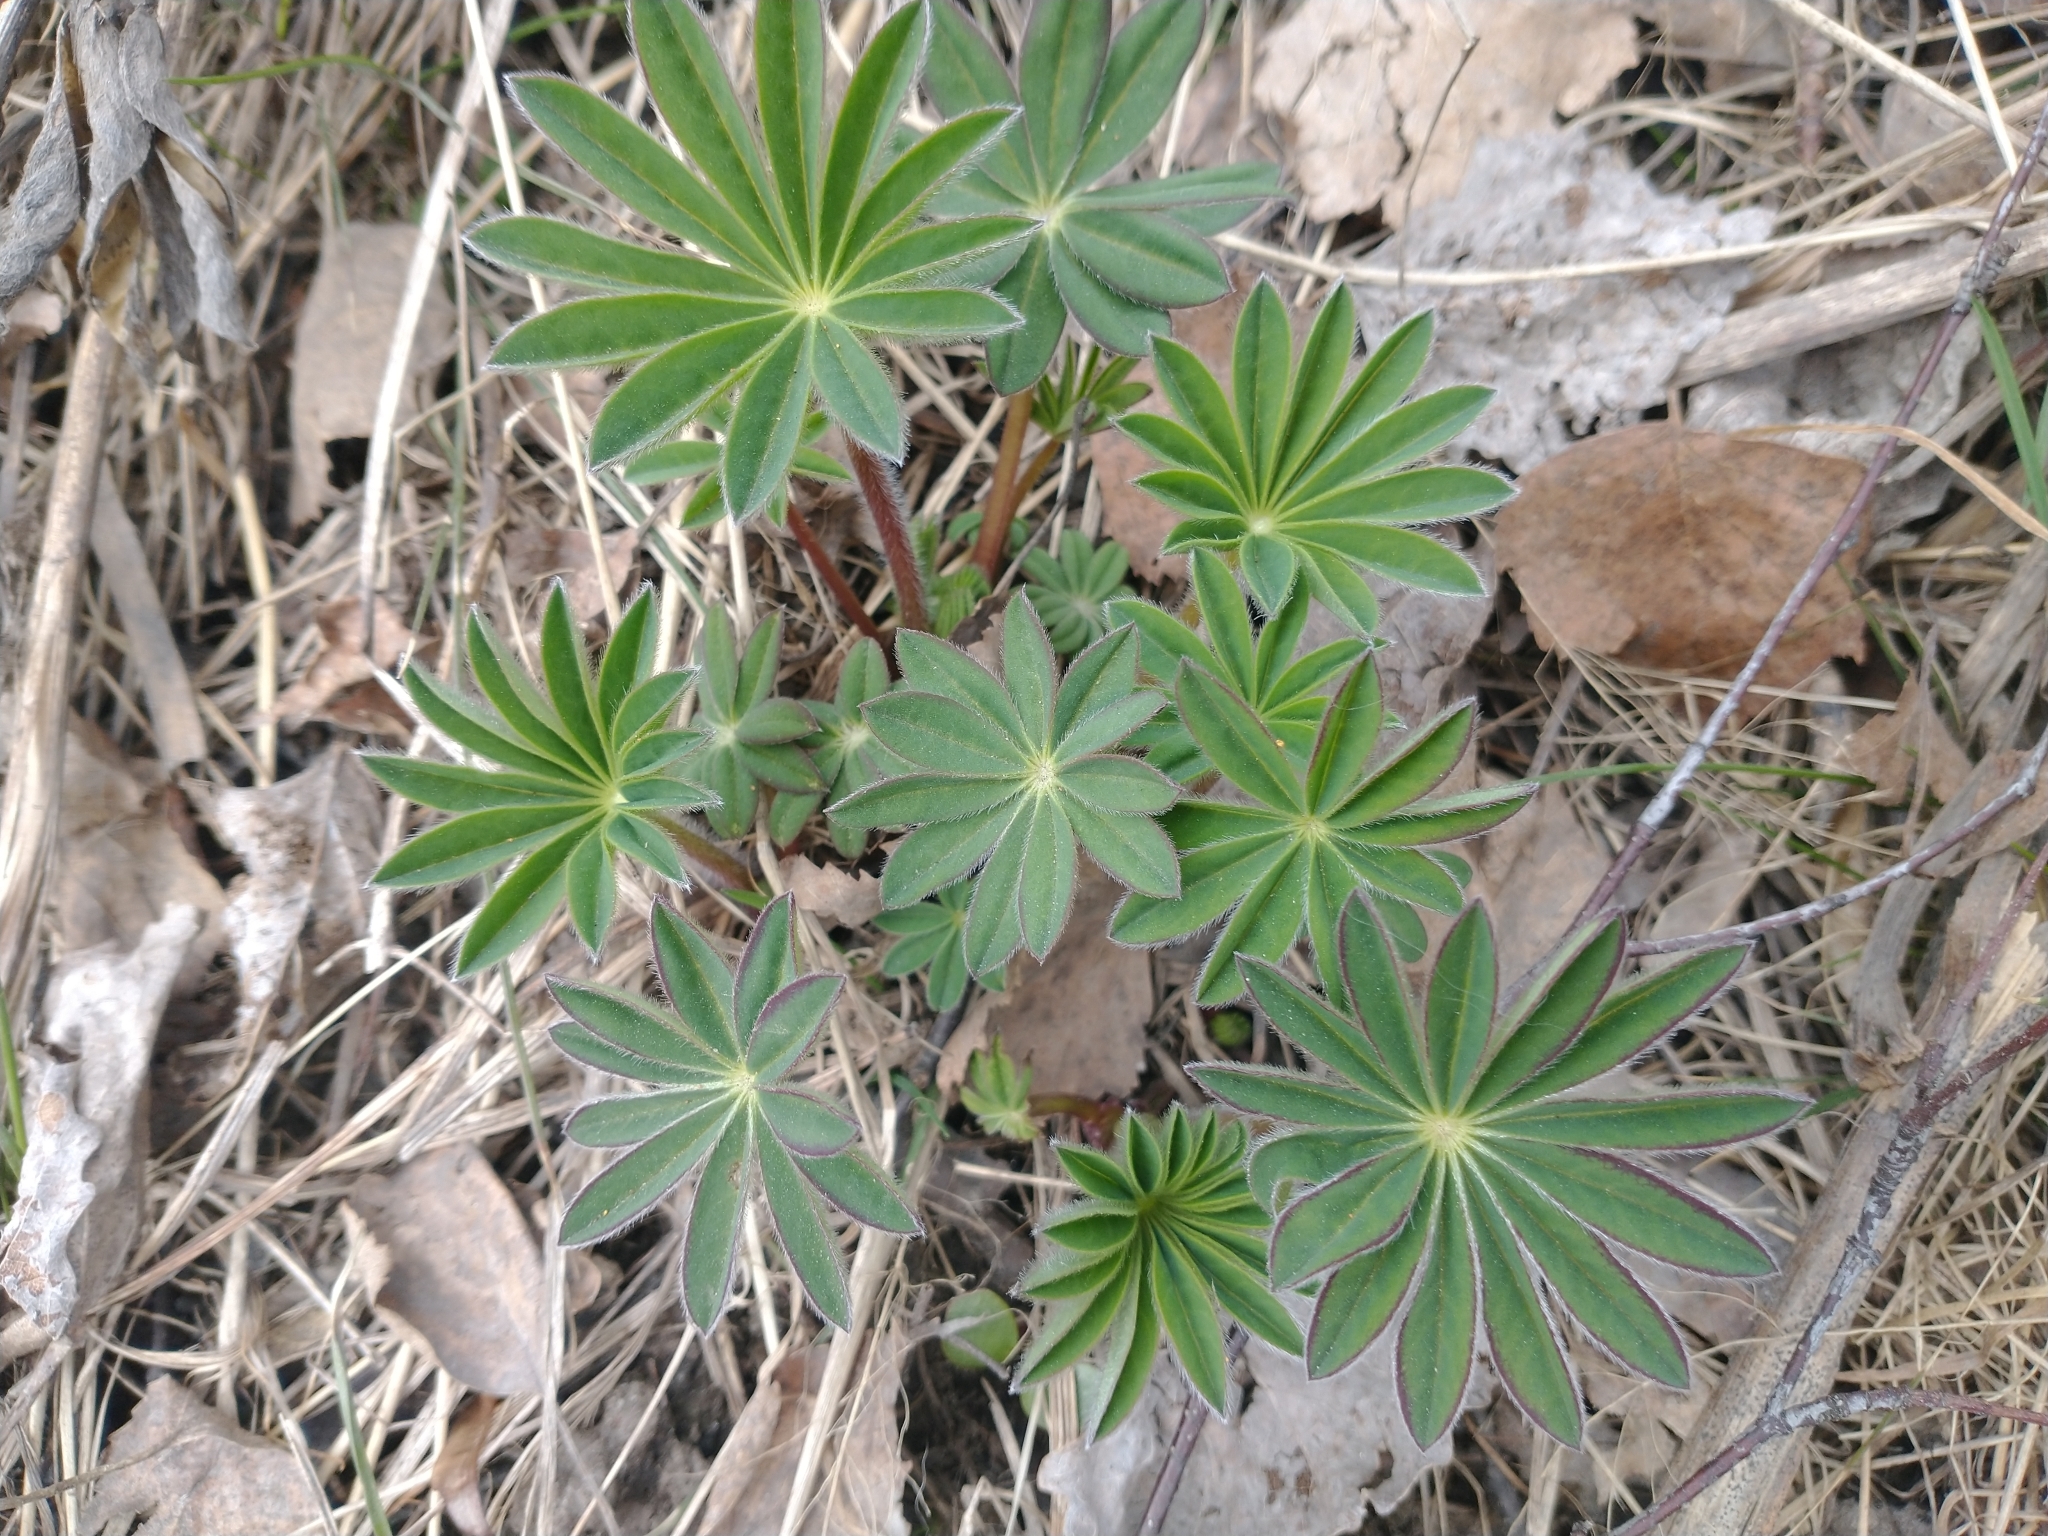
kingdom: Plantae
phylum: Tracheophyta
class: Magnoliopsida
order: Fabales
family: Fabaceae
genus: Lupinus
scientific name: Lupinus polyphyllus
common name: Garden lupin
